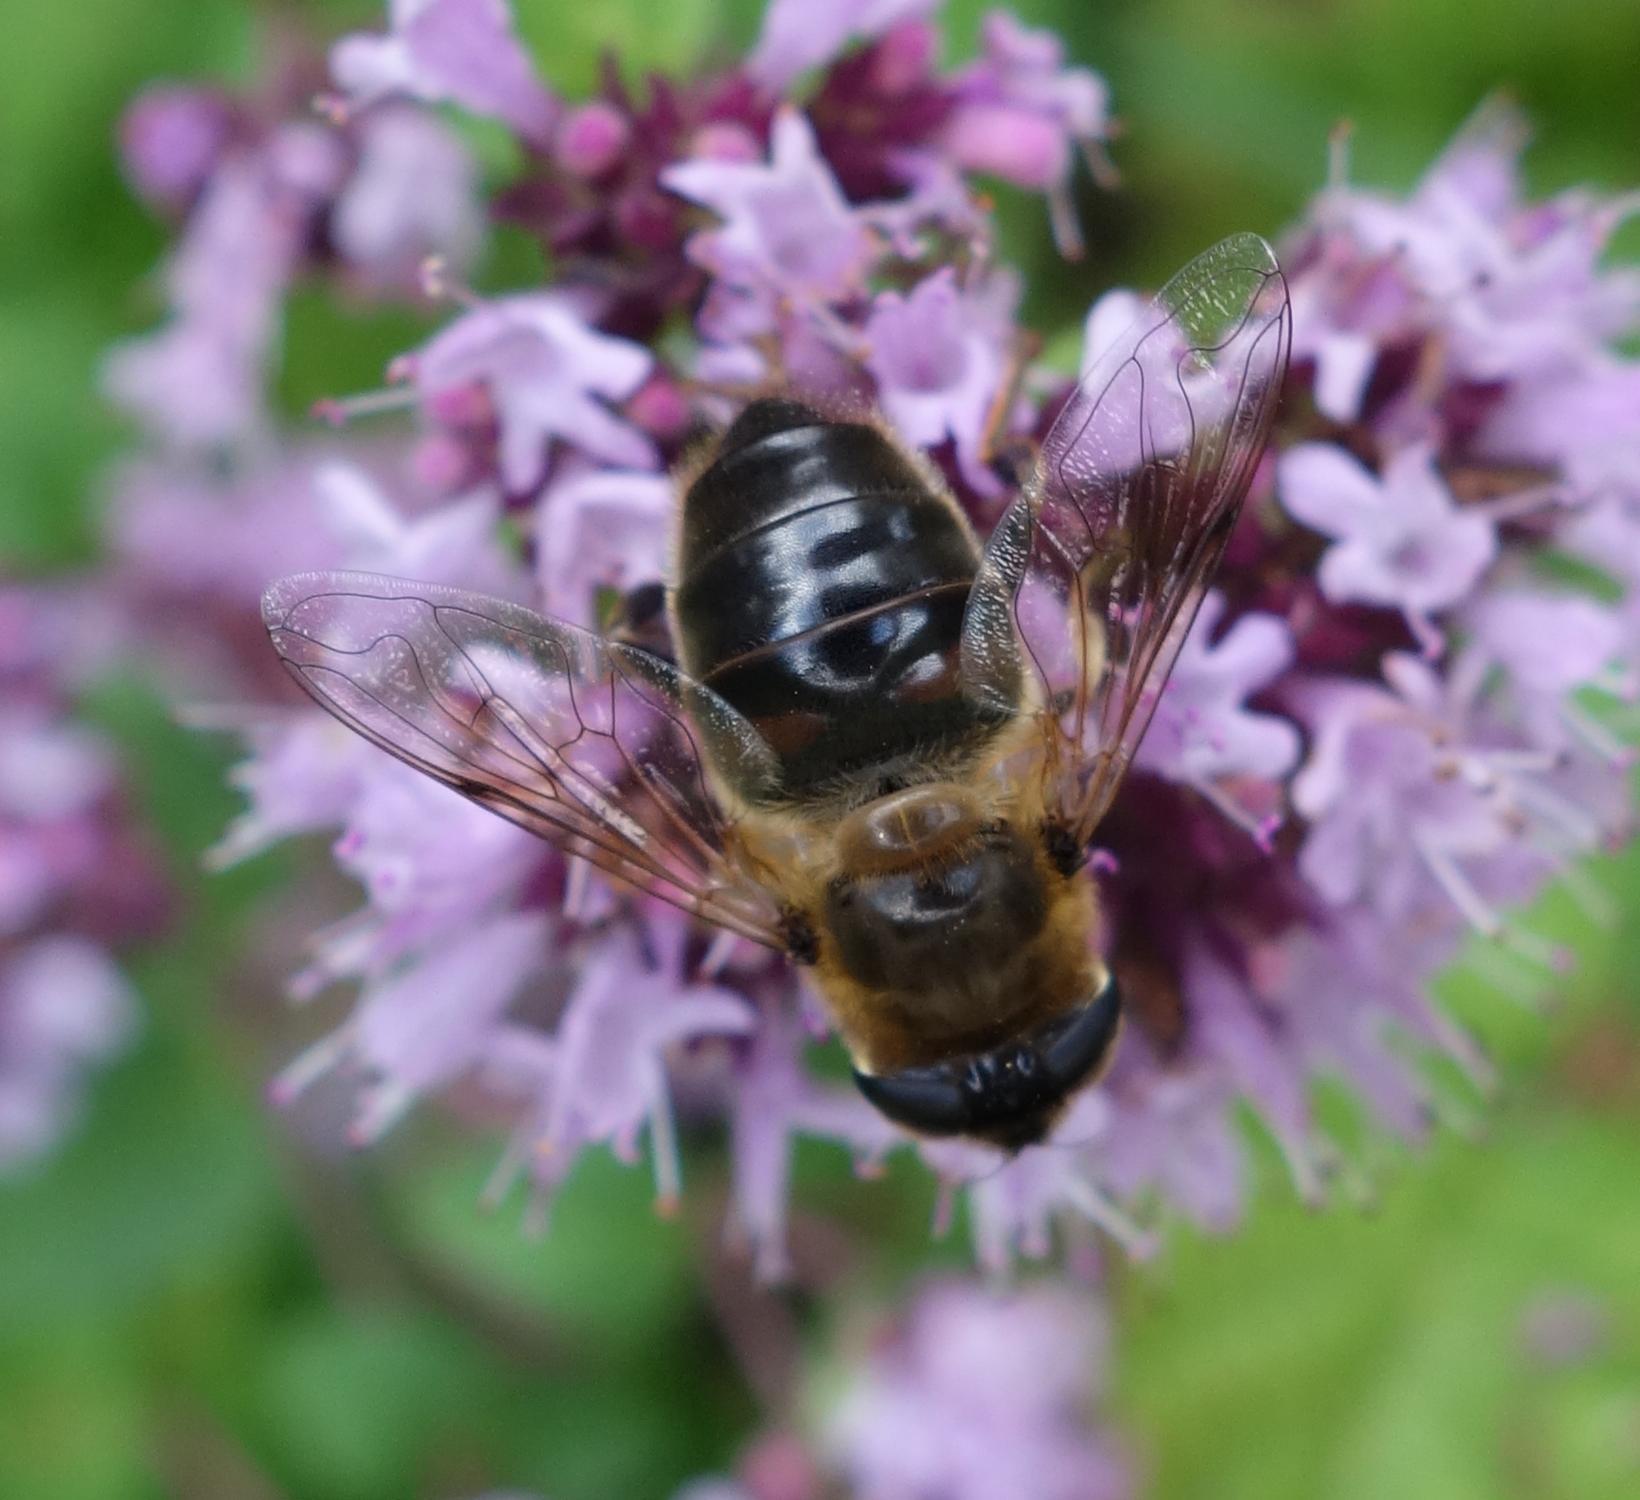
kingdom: Animalia
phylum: Arthropoda
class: Insecta
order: Diptera
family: Syrphidae
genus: Eristalis
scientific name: Eristalis tenax
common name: Drone fly
